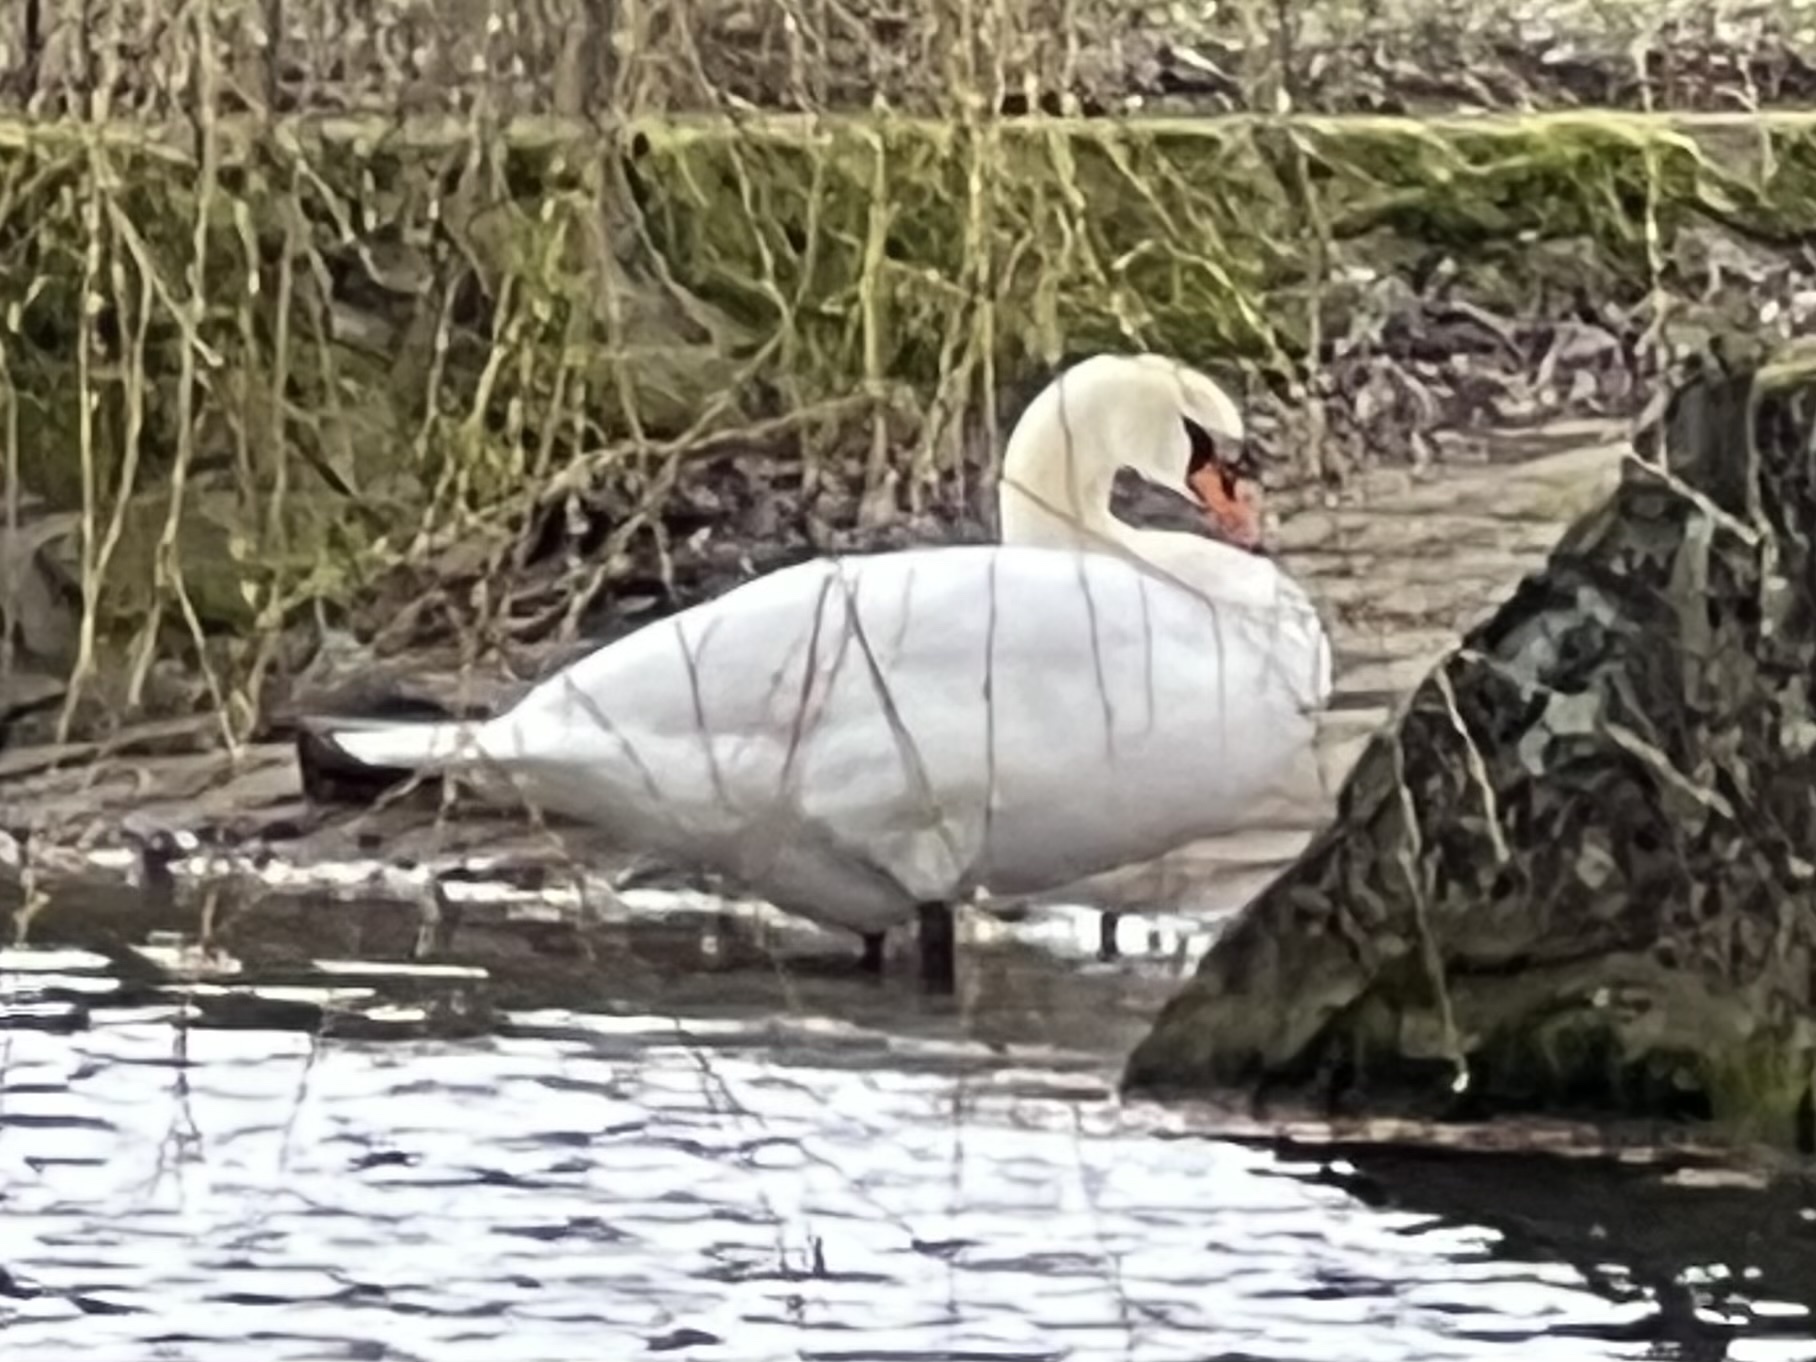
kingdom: Animalia
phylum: Chordata
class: Aves
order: Anseriformes
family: Anatidae
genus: Cygnus
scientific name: Cygnus olor
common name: Mute swan
